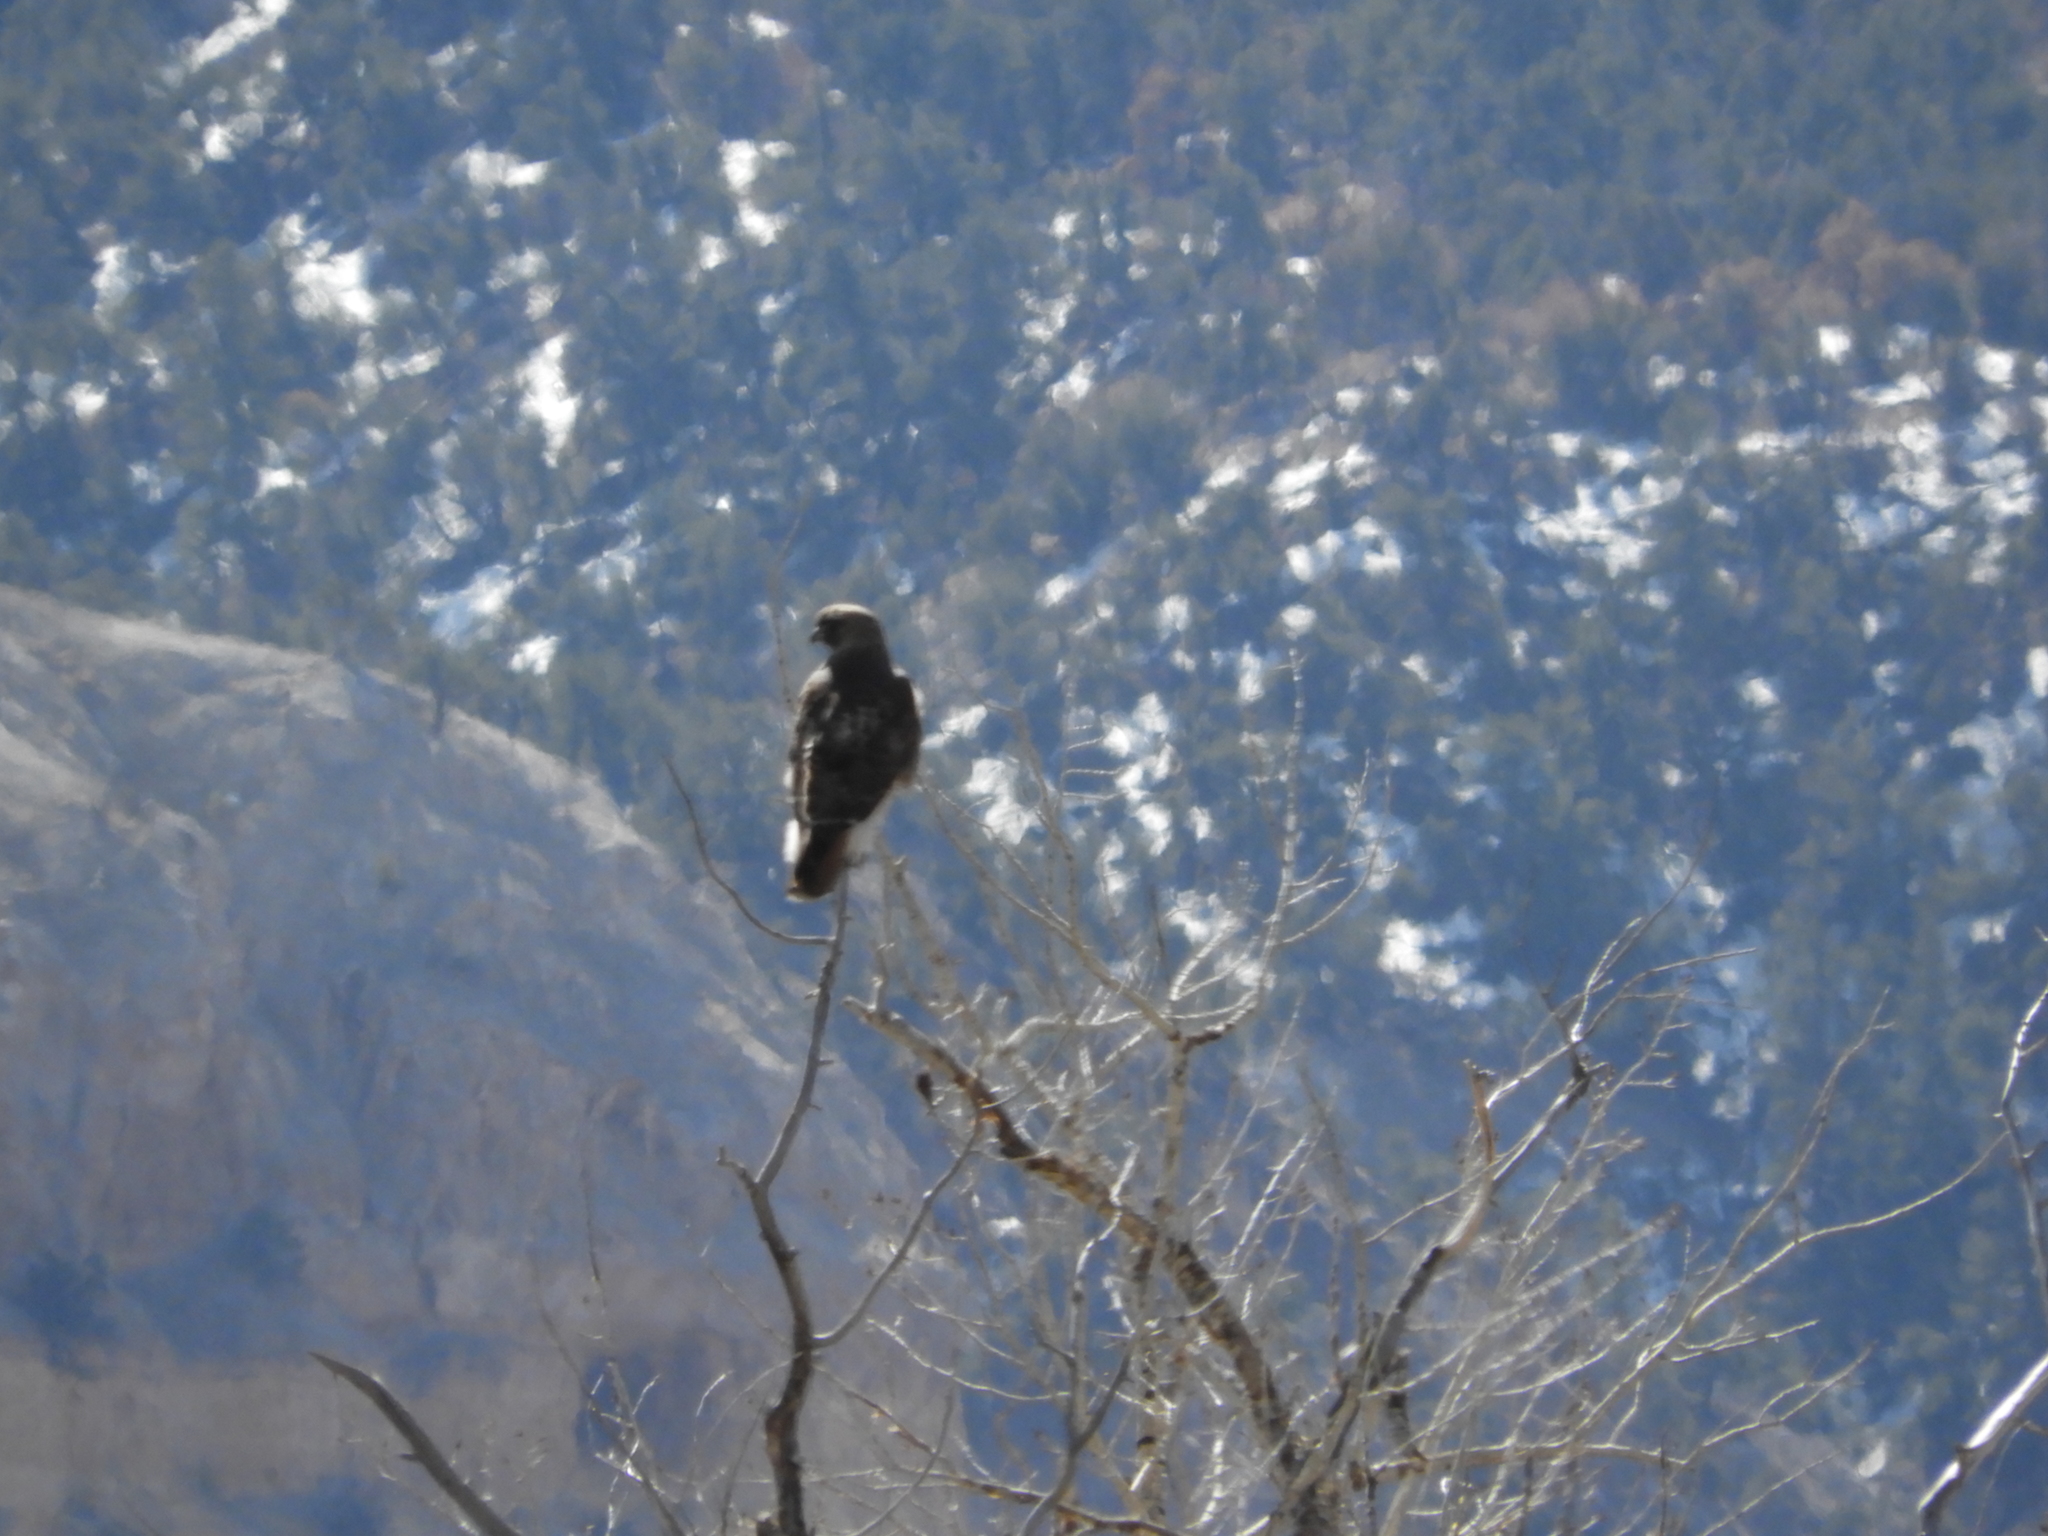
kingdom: Animalia
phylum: Chordata
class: Aves
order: Accipitriformes
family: Accipitridae
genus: Buteo
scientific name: Buteo jamaicensis
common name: Red-tailed hawk
